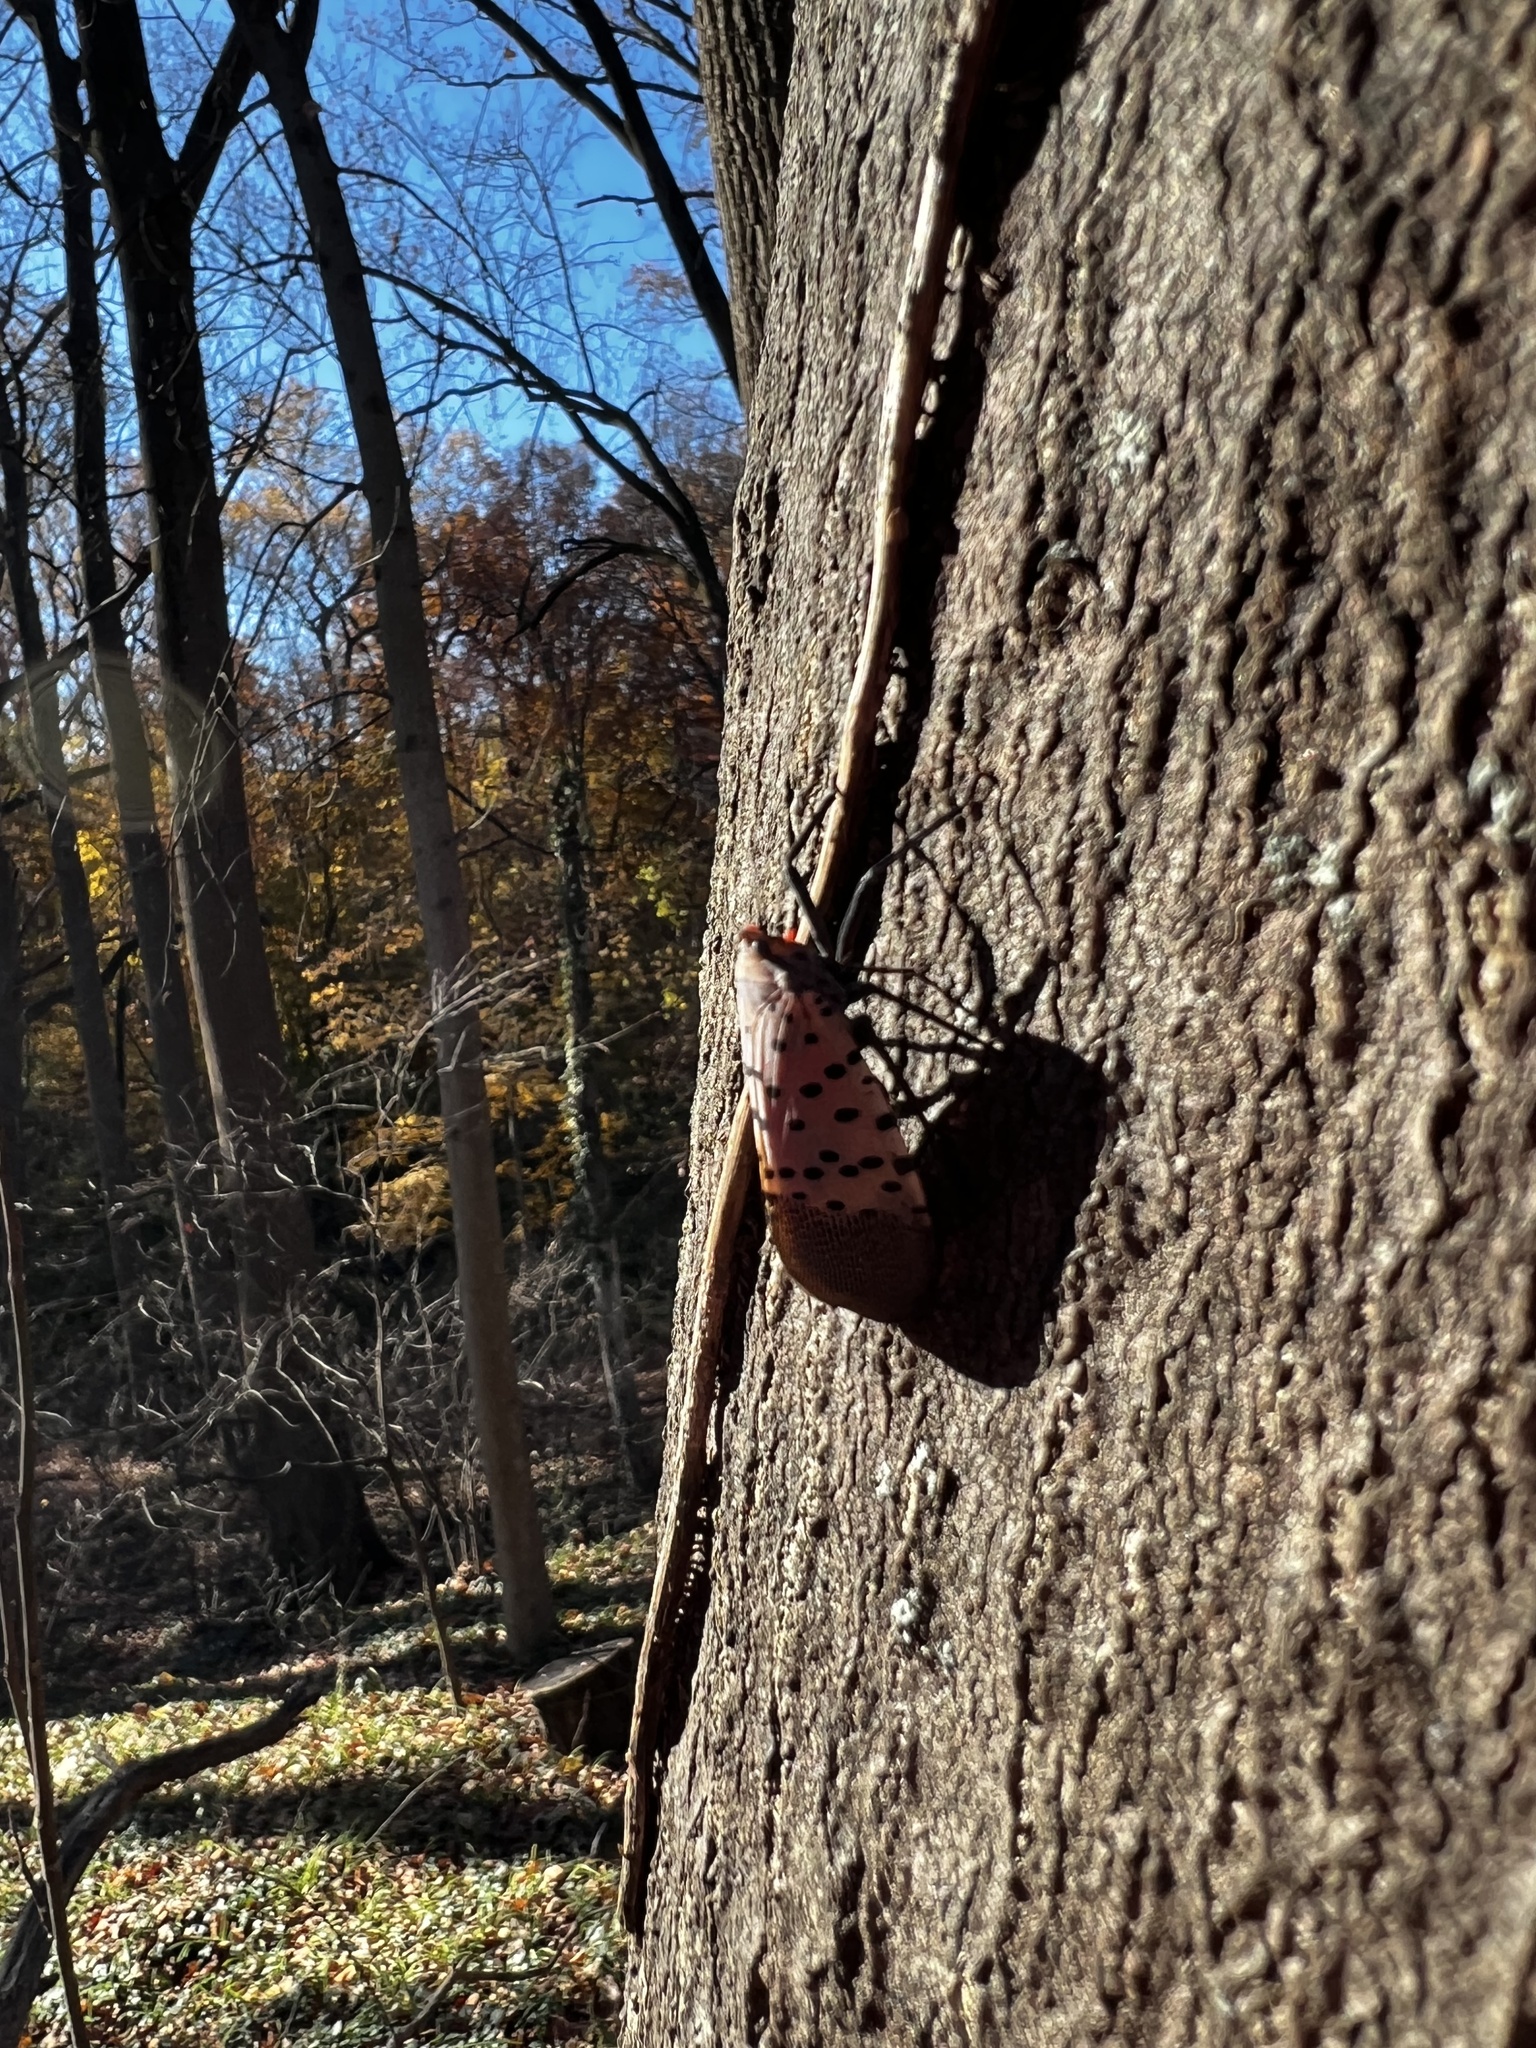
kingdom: Animalia
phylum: Arthropoda
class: Insecta
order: Hemiptera
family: Fulgoridae
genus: Lycorma
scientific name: Lycorma delicatula
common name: Spotted lanternfly
